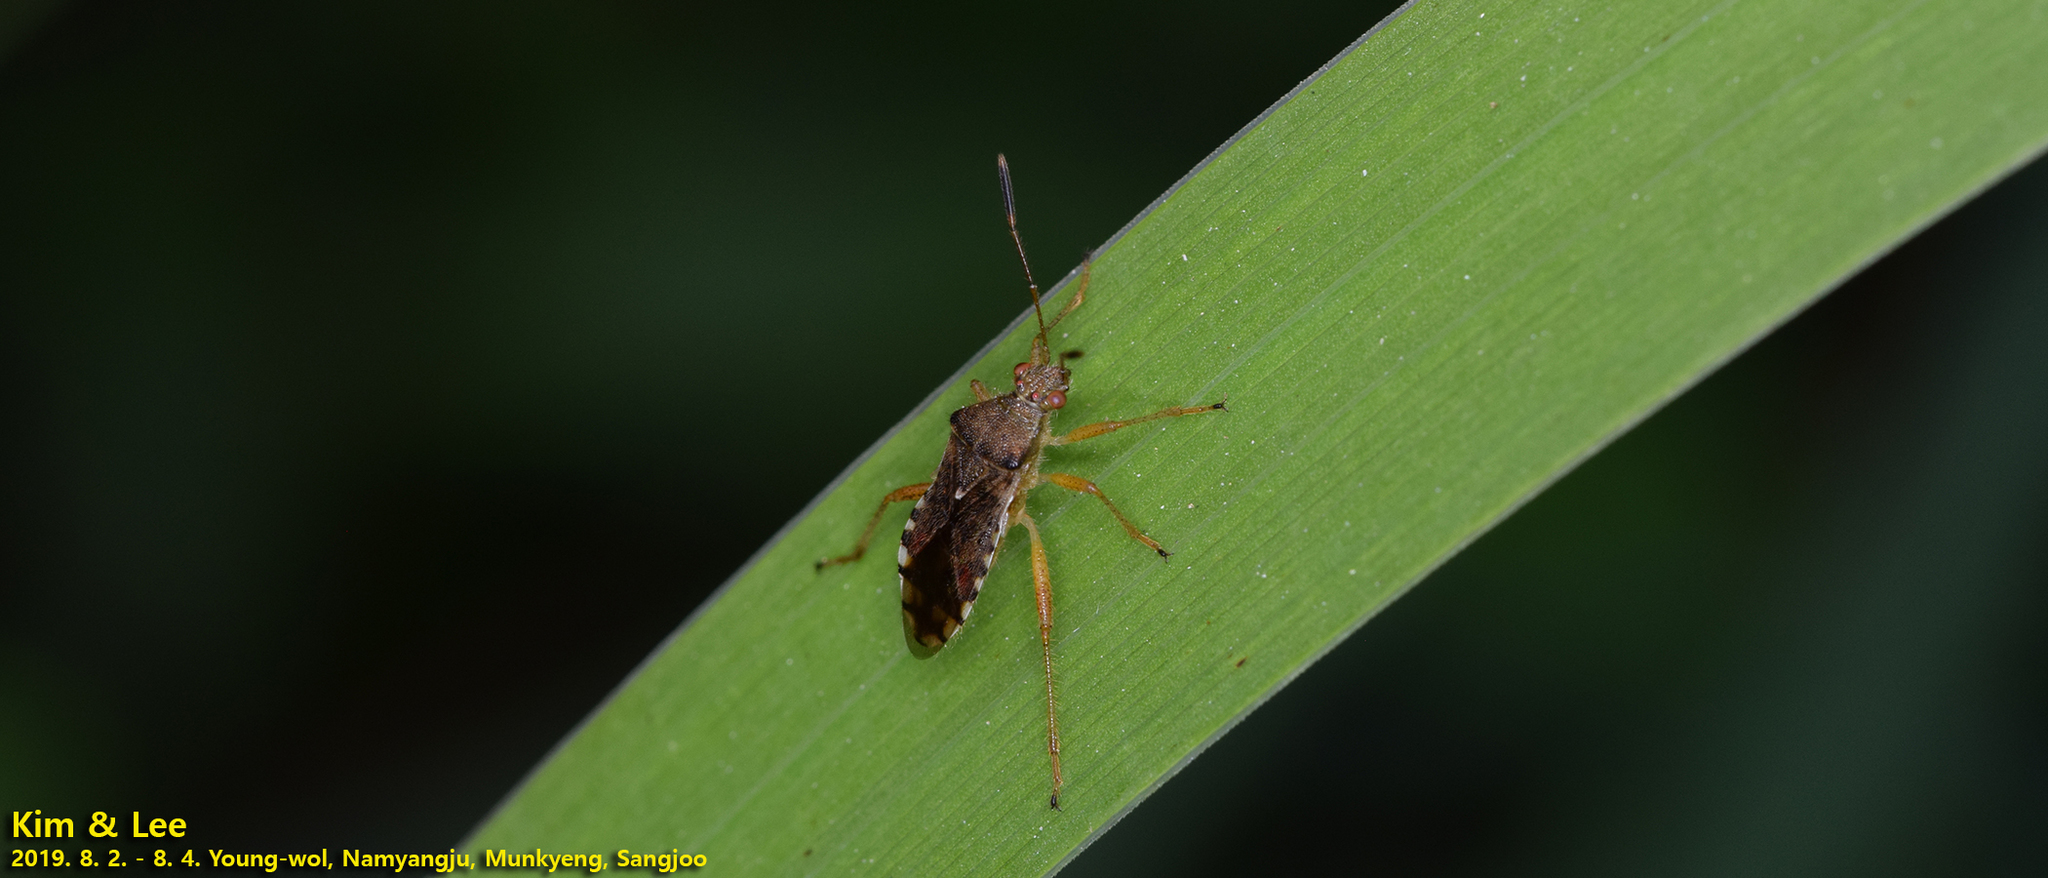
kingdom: Animalia
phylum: Arthropoda
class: Insecta
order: Hemiptera
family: Rhopalidae
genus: Rhopalus
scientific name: Rhopalus sapporensis
